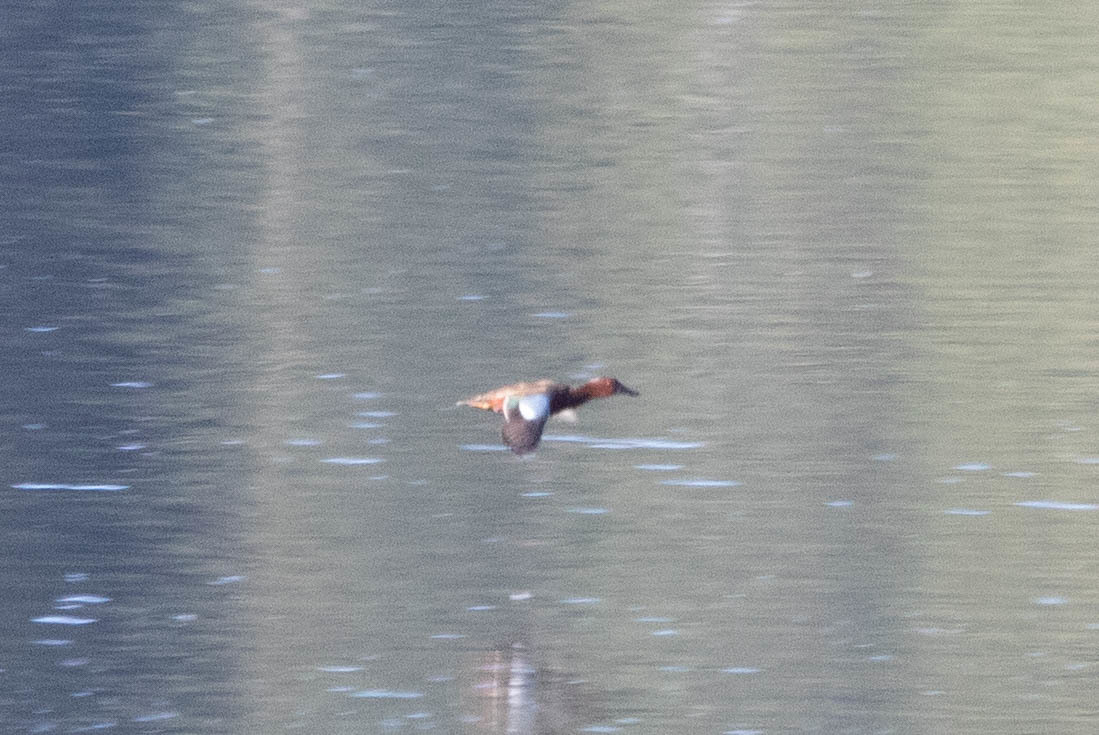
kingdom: Animalia
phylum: Chordata
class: Aves
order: Anseriformes
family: Anatidae
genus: Spatula
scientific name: Spatula cyanoptera
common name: Cinnamon teal
